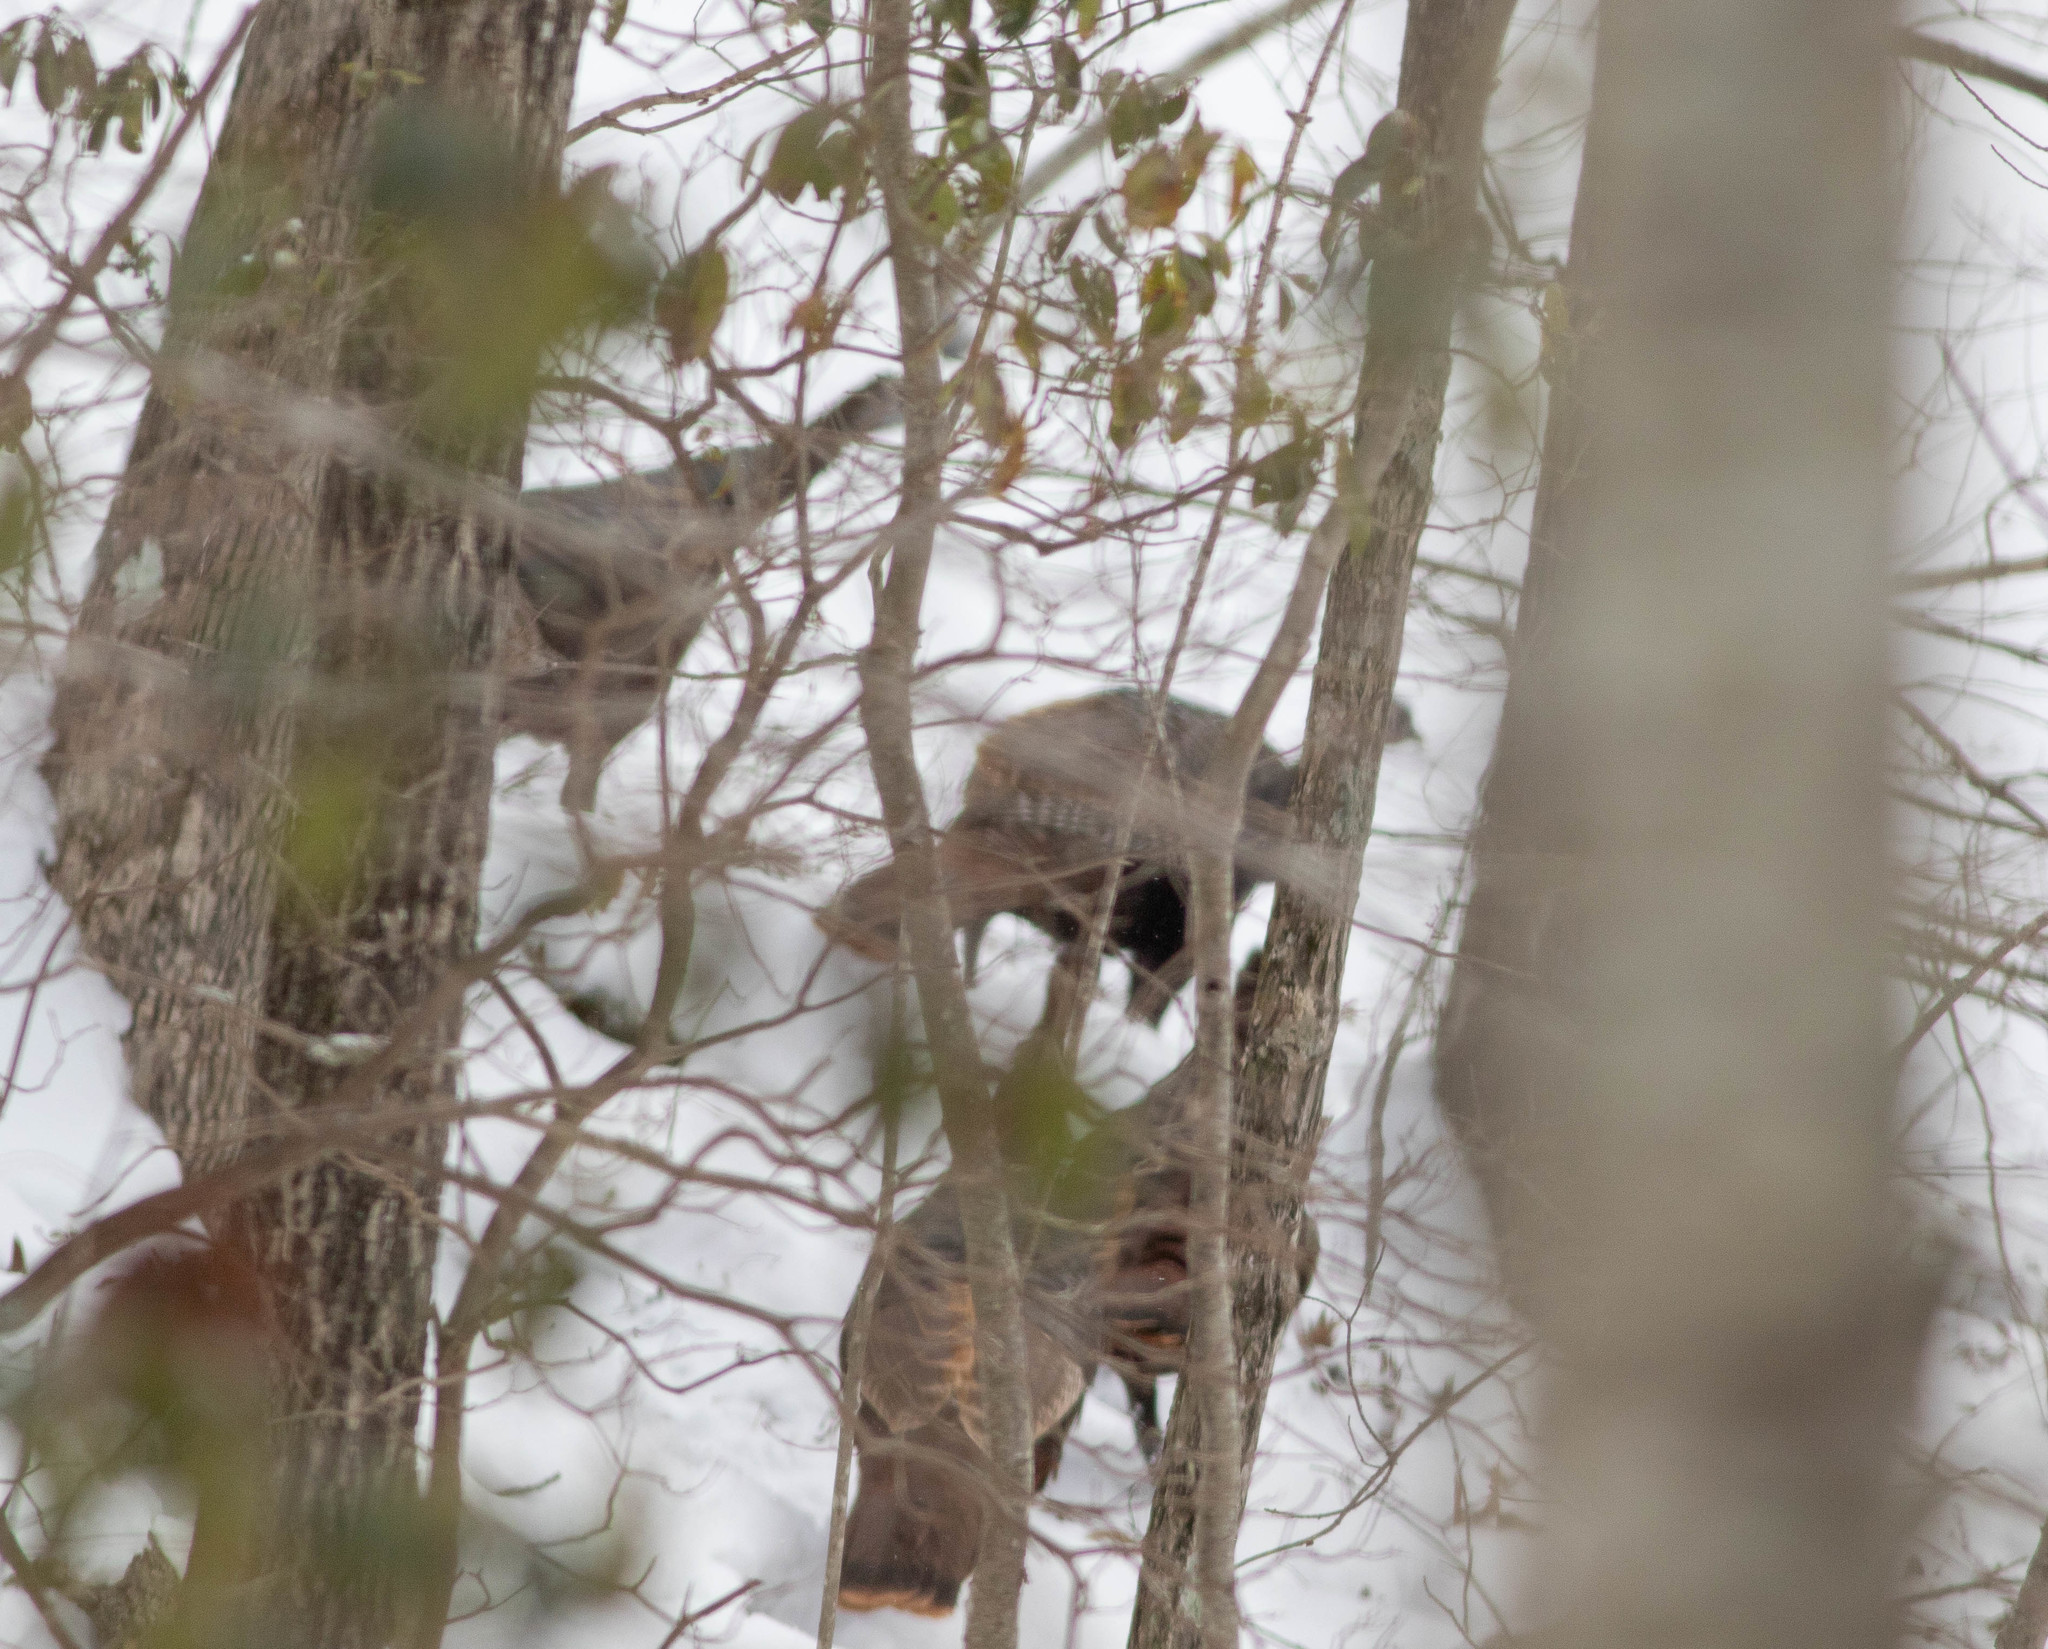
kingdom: Animalia
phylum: Chordata
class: Aves
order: Galliformes
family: Phasianidae
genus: Meleagris
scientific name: Meleagris gallopavo
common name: Wild turkey
